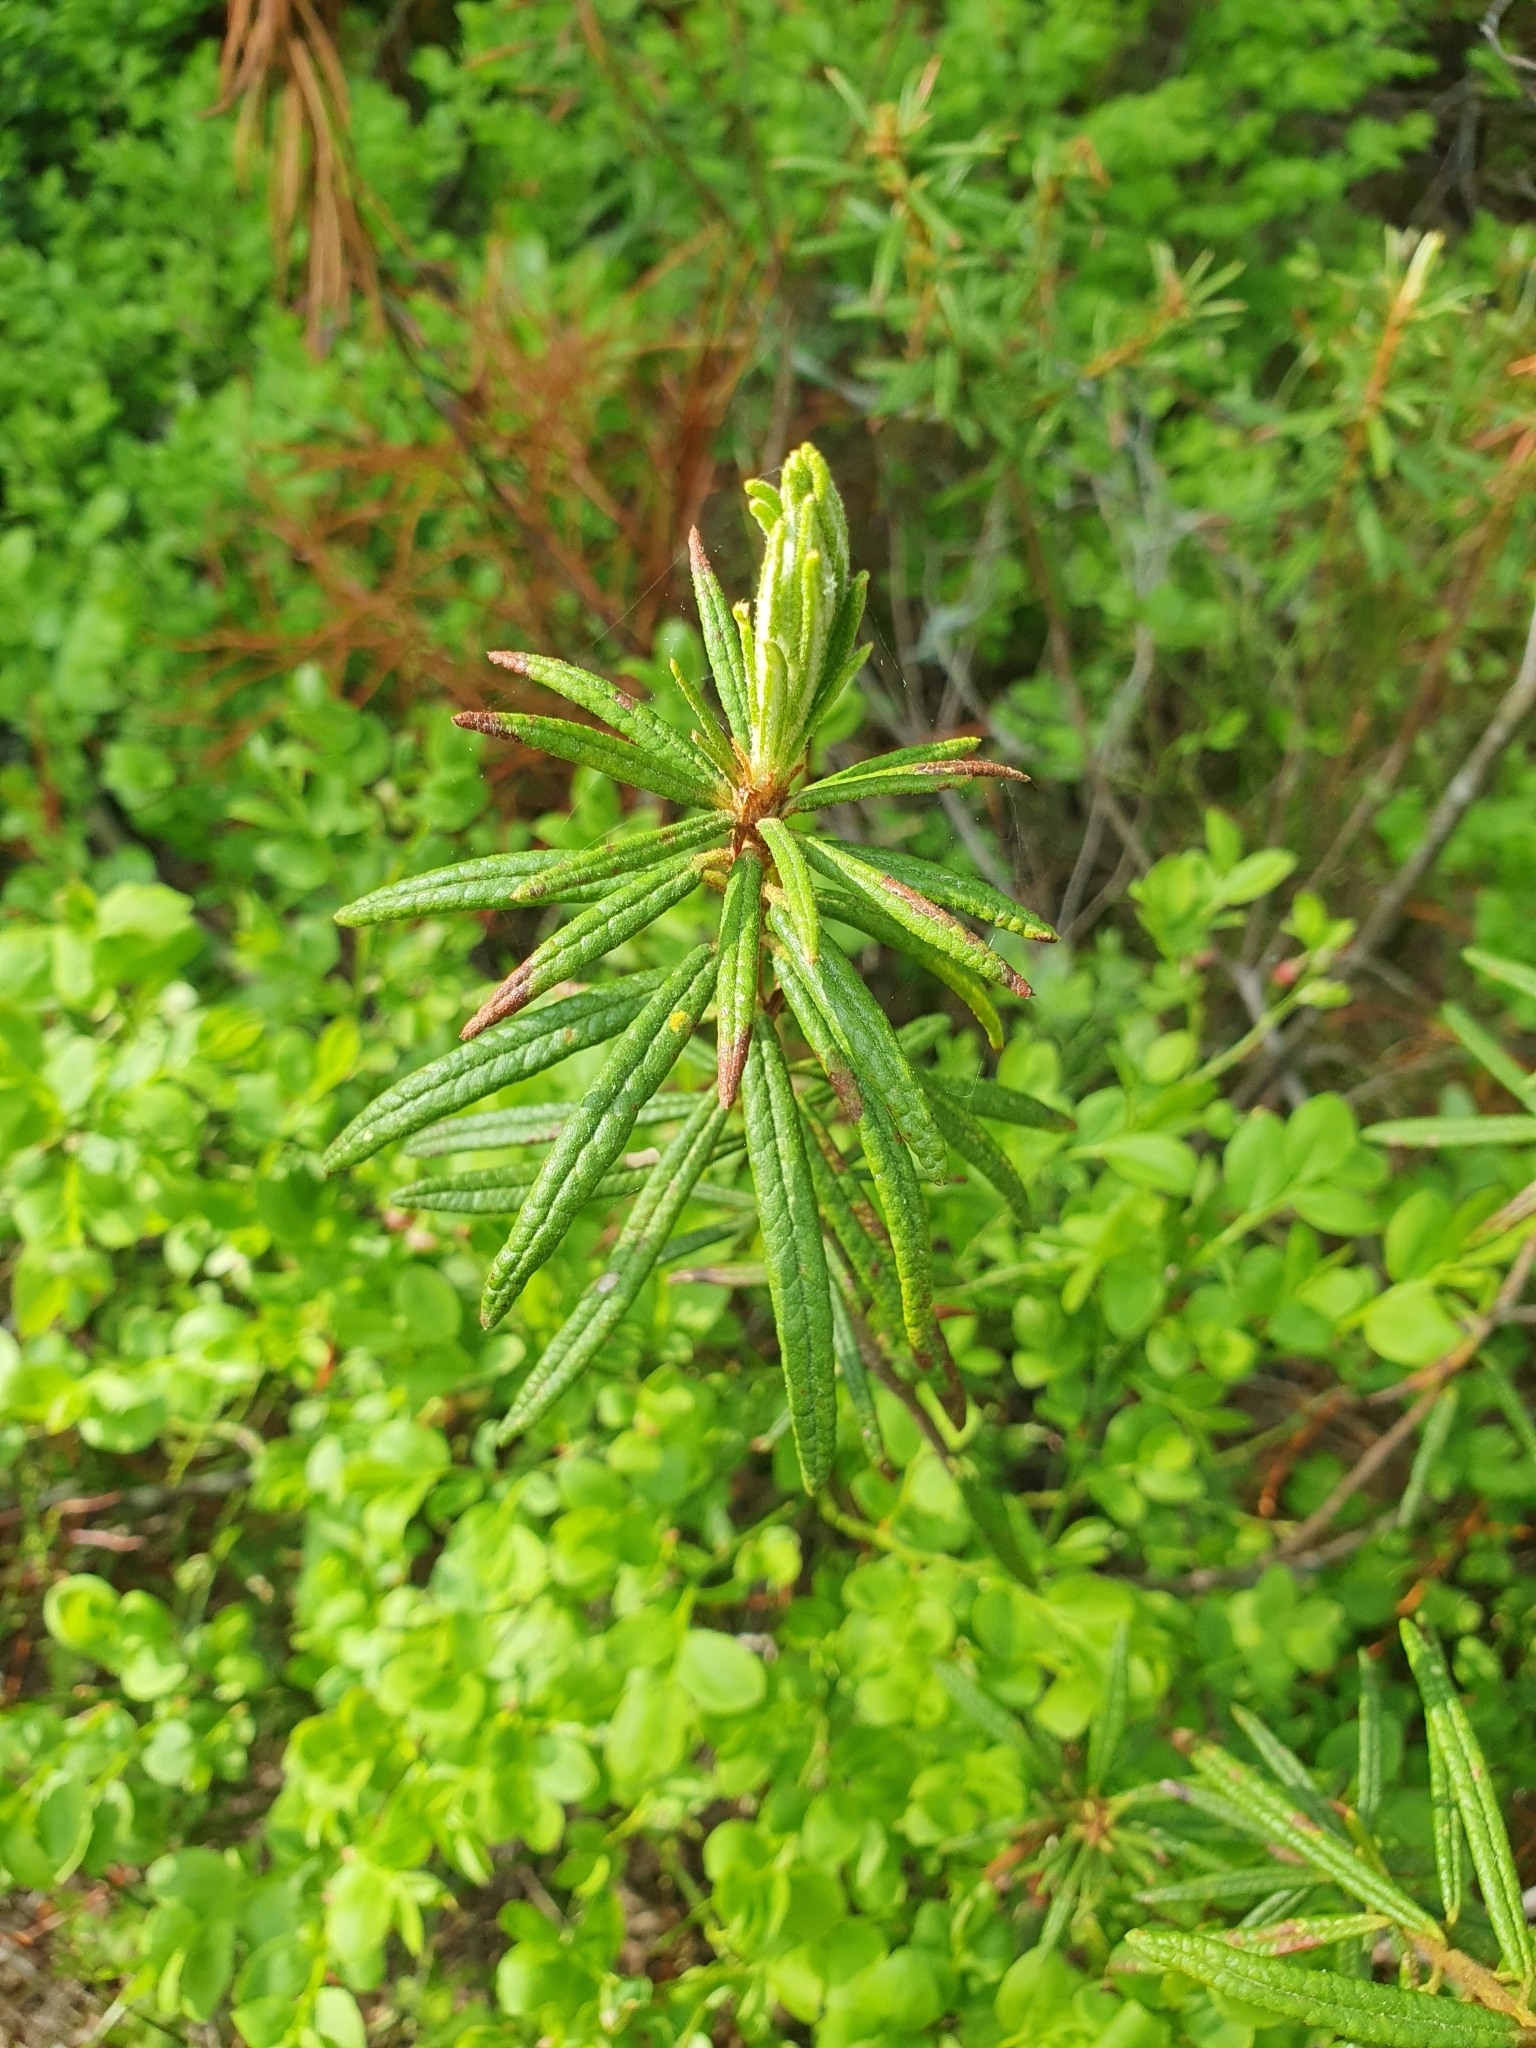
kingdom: Plantae
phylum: Tracheophyta
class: Magnoliopsida
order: Ericales
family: Ericaceae
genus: Rhododendron
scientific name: Rhododendron tomentosum
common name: Marsh labrador tea
